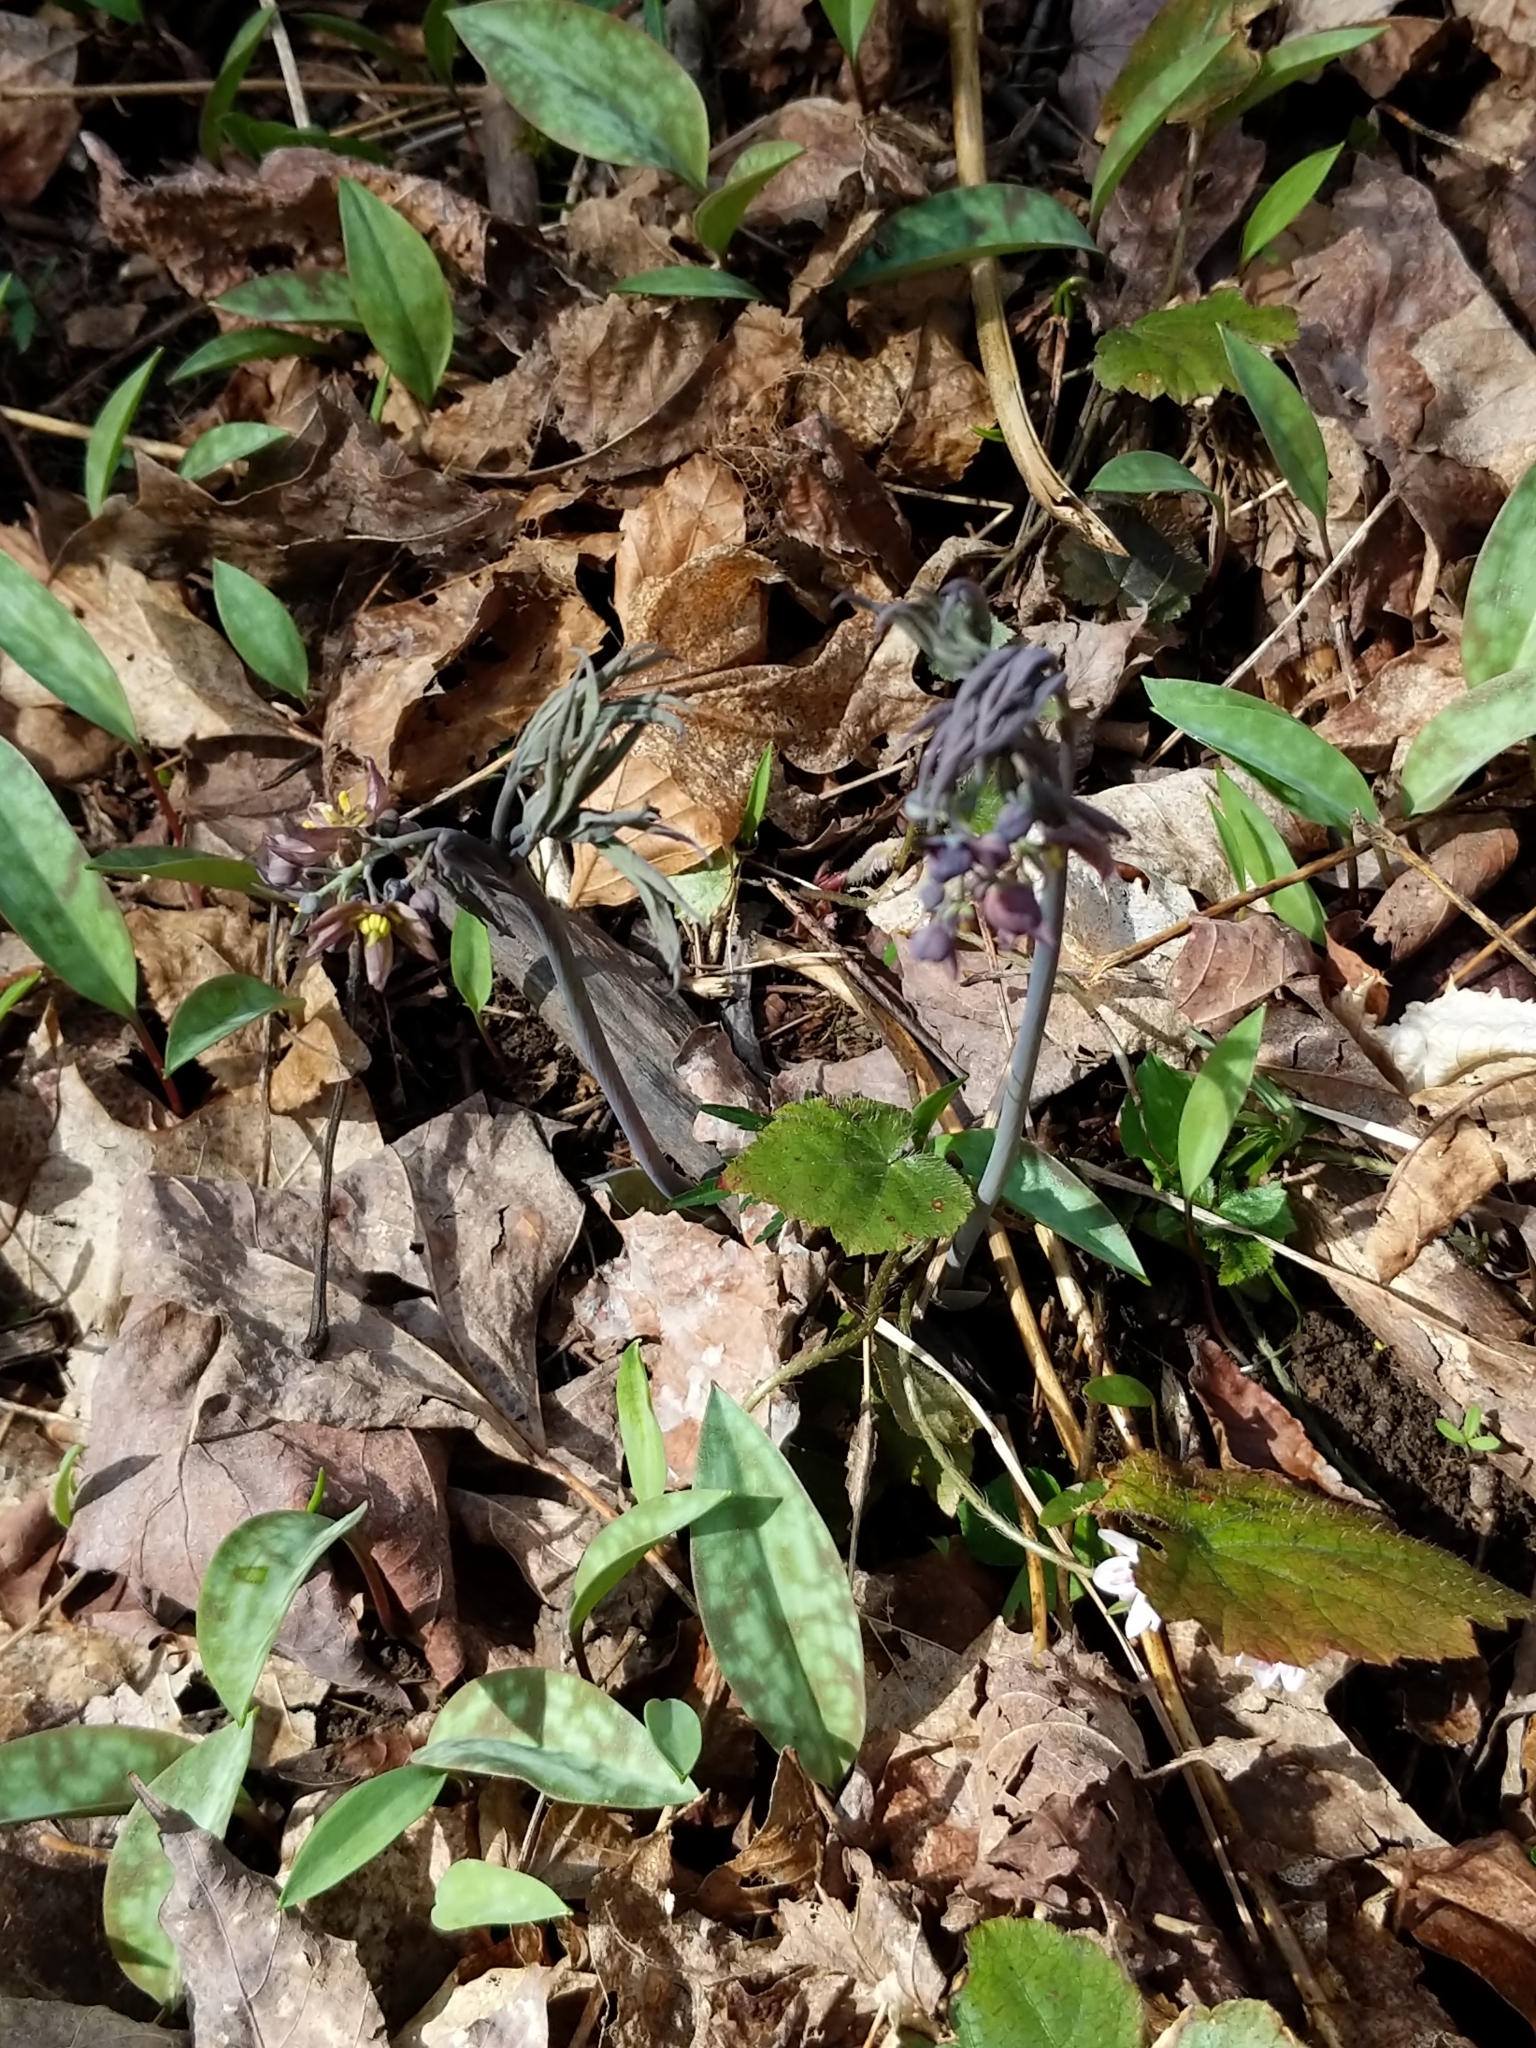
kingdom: Plantae
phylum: Tracheophyta
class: Magnoliopsida
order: Ranunculales
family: Berberidaceae
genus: Caulophyllum
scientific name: Caulophyllum giganteum
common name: Blue cohosh
